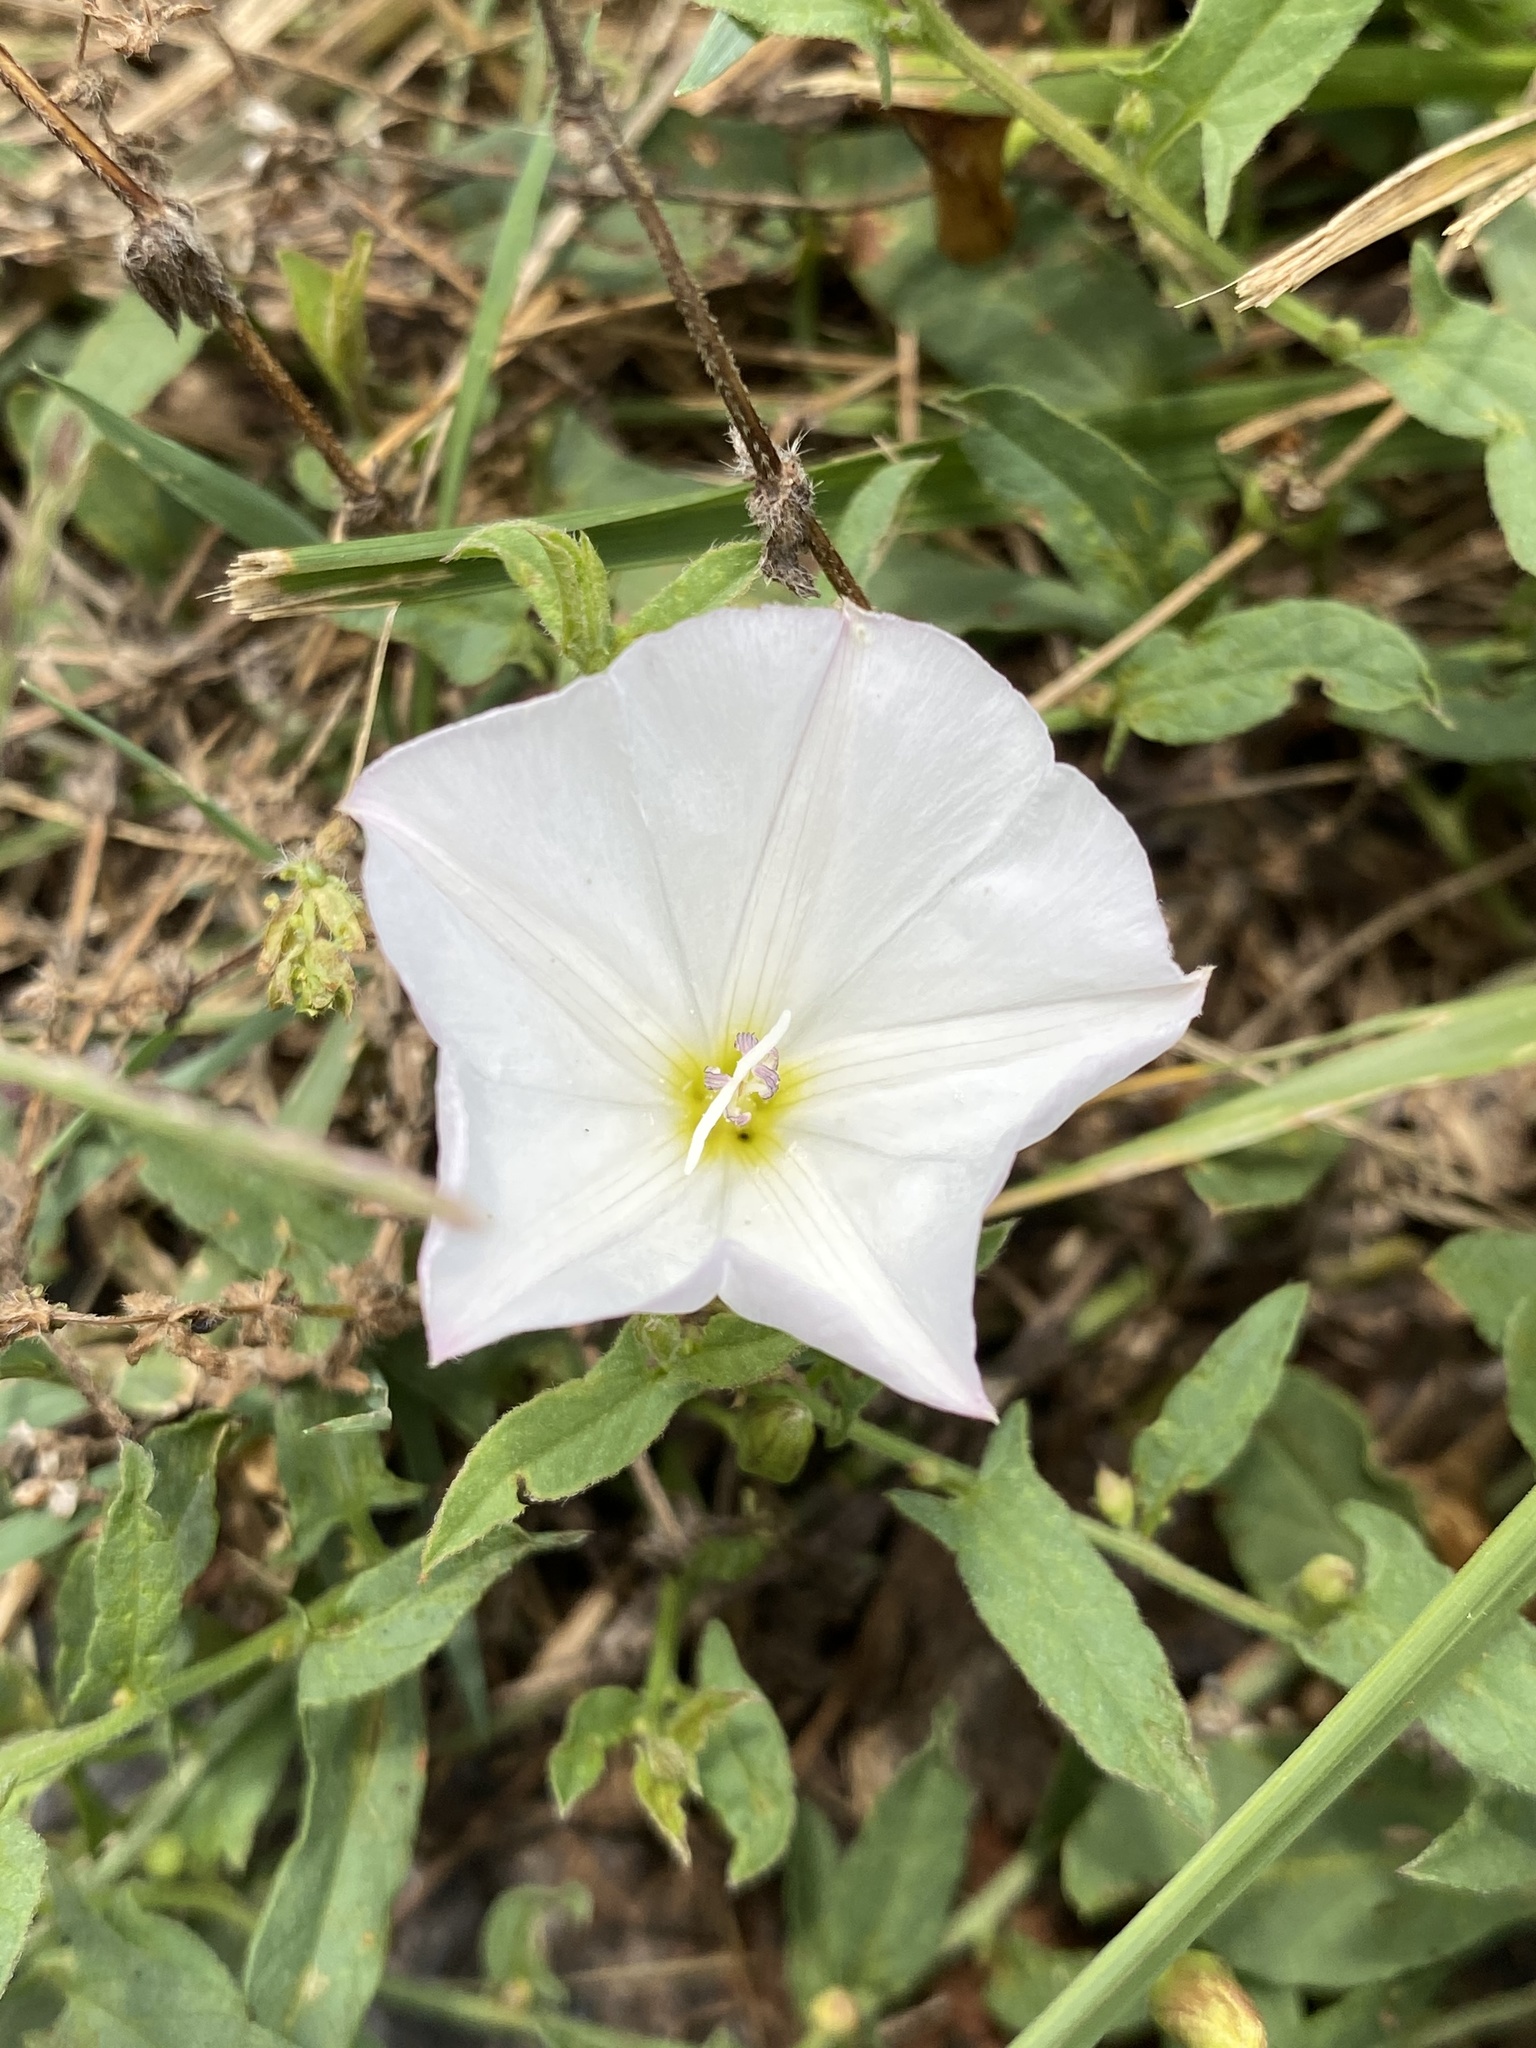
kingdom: Plantae
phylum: Tracheophyta
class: Magnoliopsida
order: Solanales
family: Convolvulaceae
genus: Convolvulus
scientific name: Convolvulus arvensis
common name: Field bindweed
